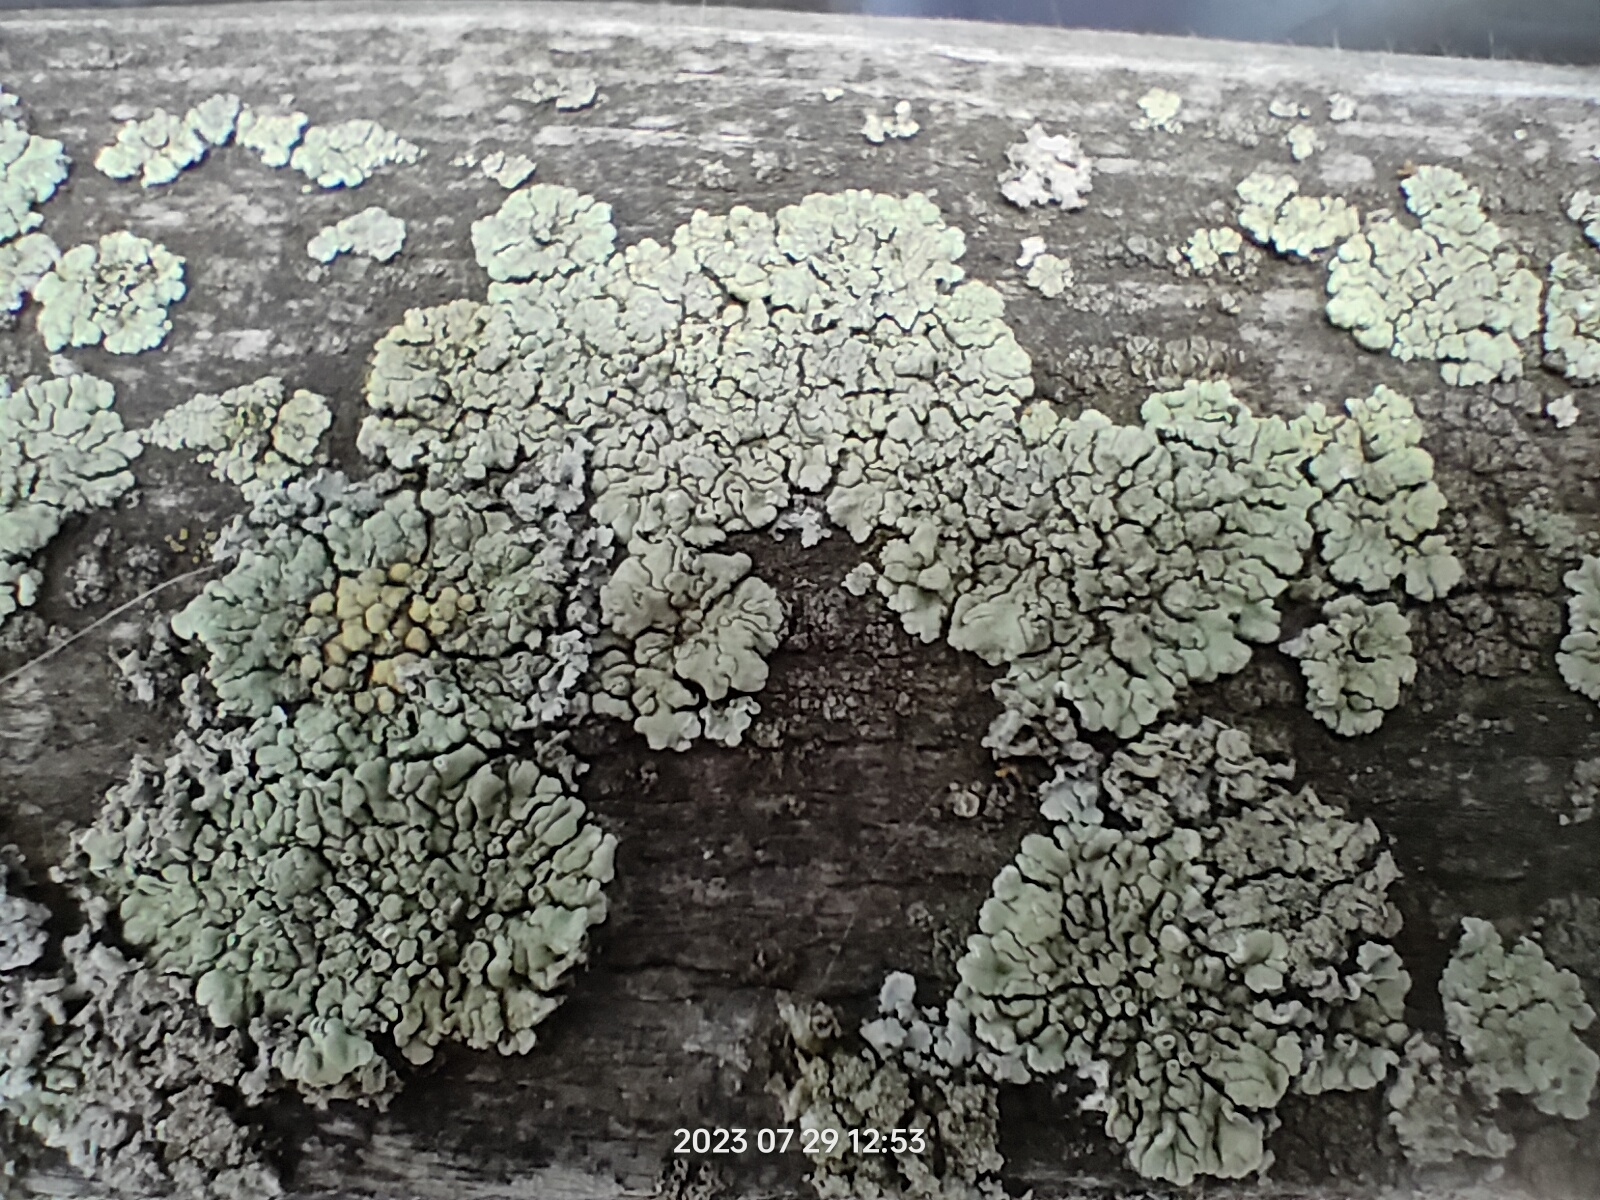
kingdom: Fungi
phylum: Ascomycota
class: Lecanoromycetes
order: Lecanorales
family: Parmeliaceae
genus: Flavopunctelia
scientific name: Flavopunctelia soredica
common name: Powder-edged speckled greenshield
